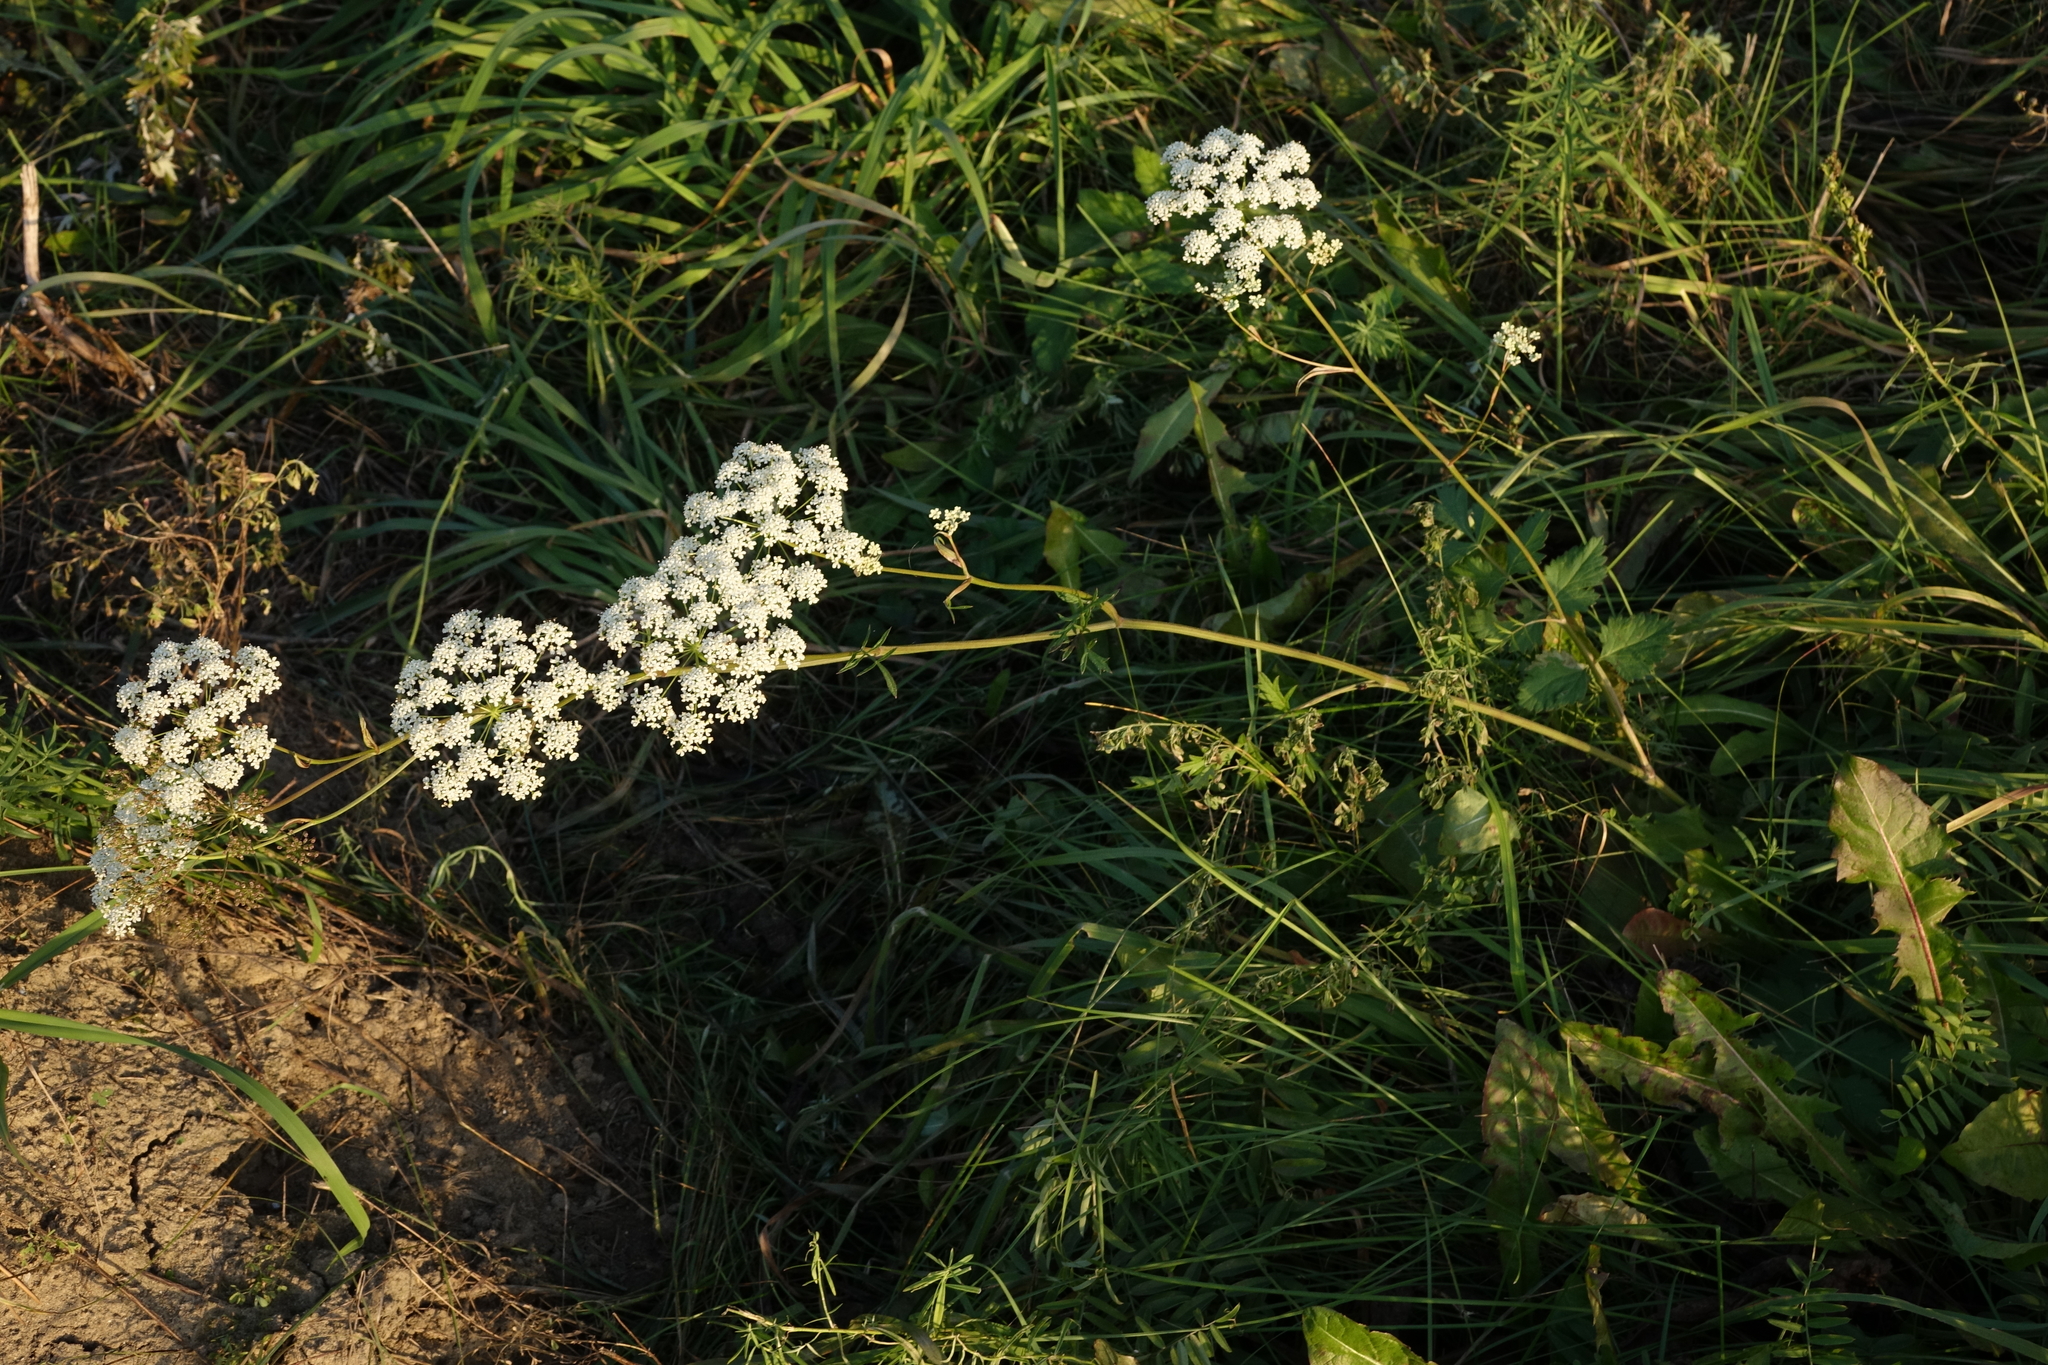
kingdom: Plantae
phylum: Tracheophyta
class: Magnoliopsida
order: Apiales
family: Apiaceae
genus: Pimpinella
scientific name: Pimpinella saxifraga
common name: Burnet-saxifrage
